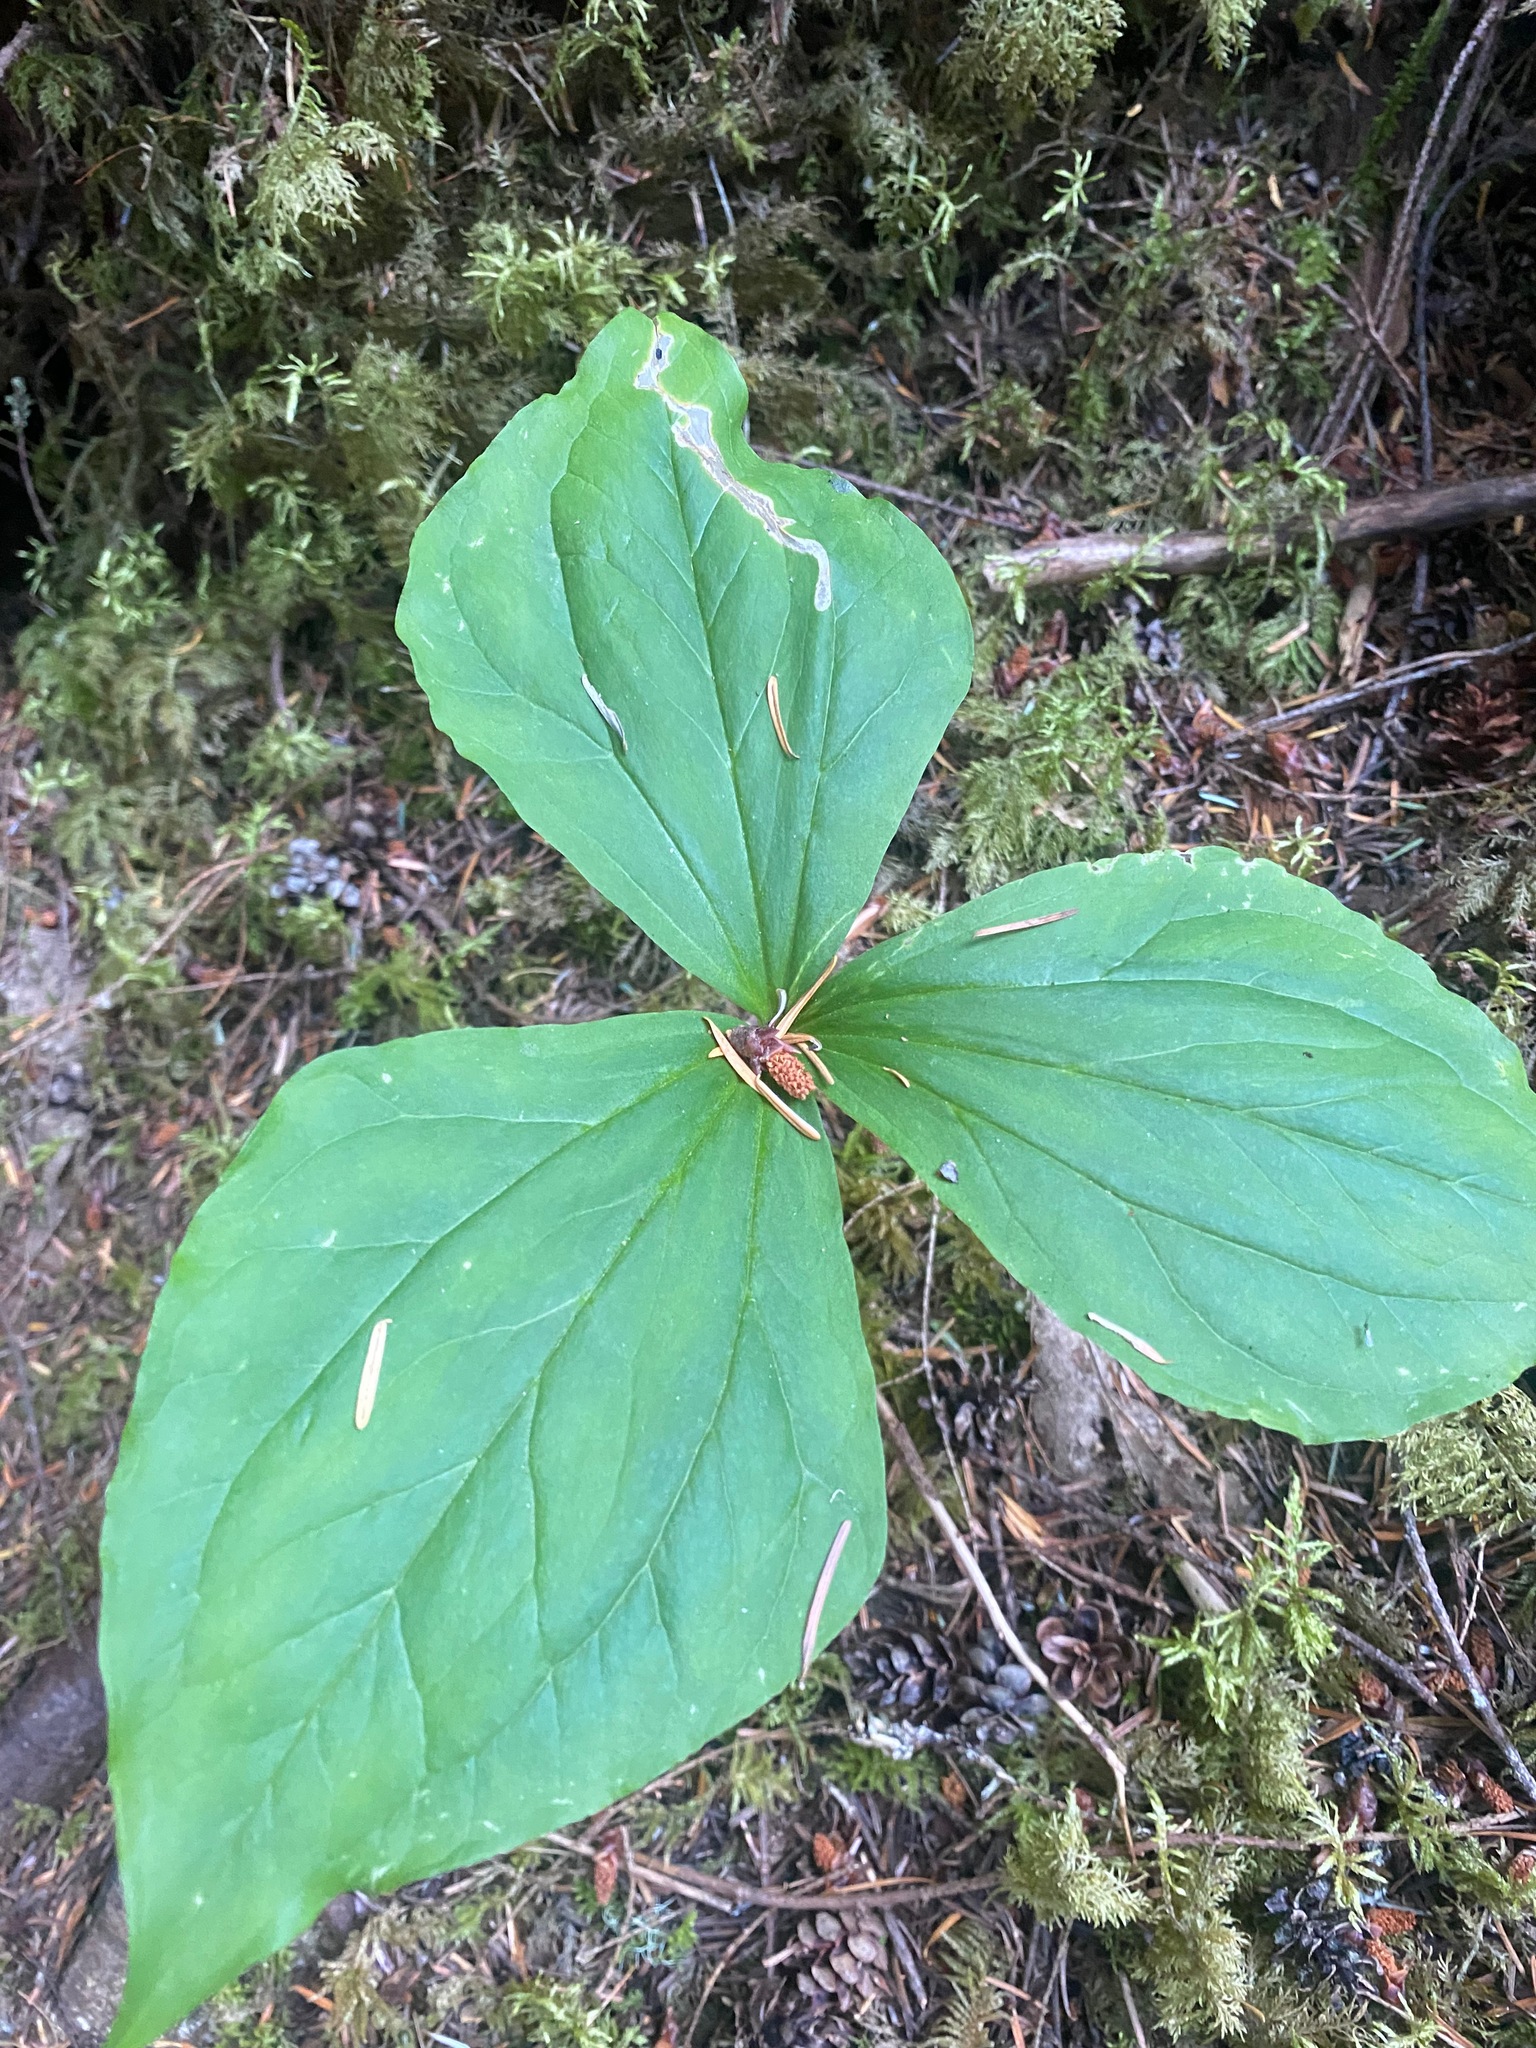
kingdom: Plantae
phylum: Tracheophyta
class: Liliopsida
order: Liliales
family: Melanthiaceae
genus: Trillium
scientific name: Trillium ovatum
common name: Pacific trillium
